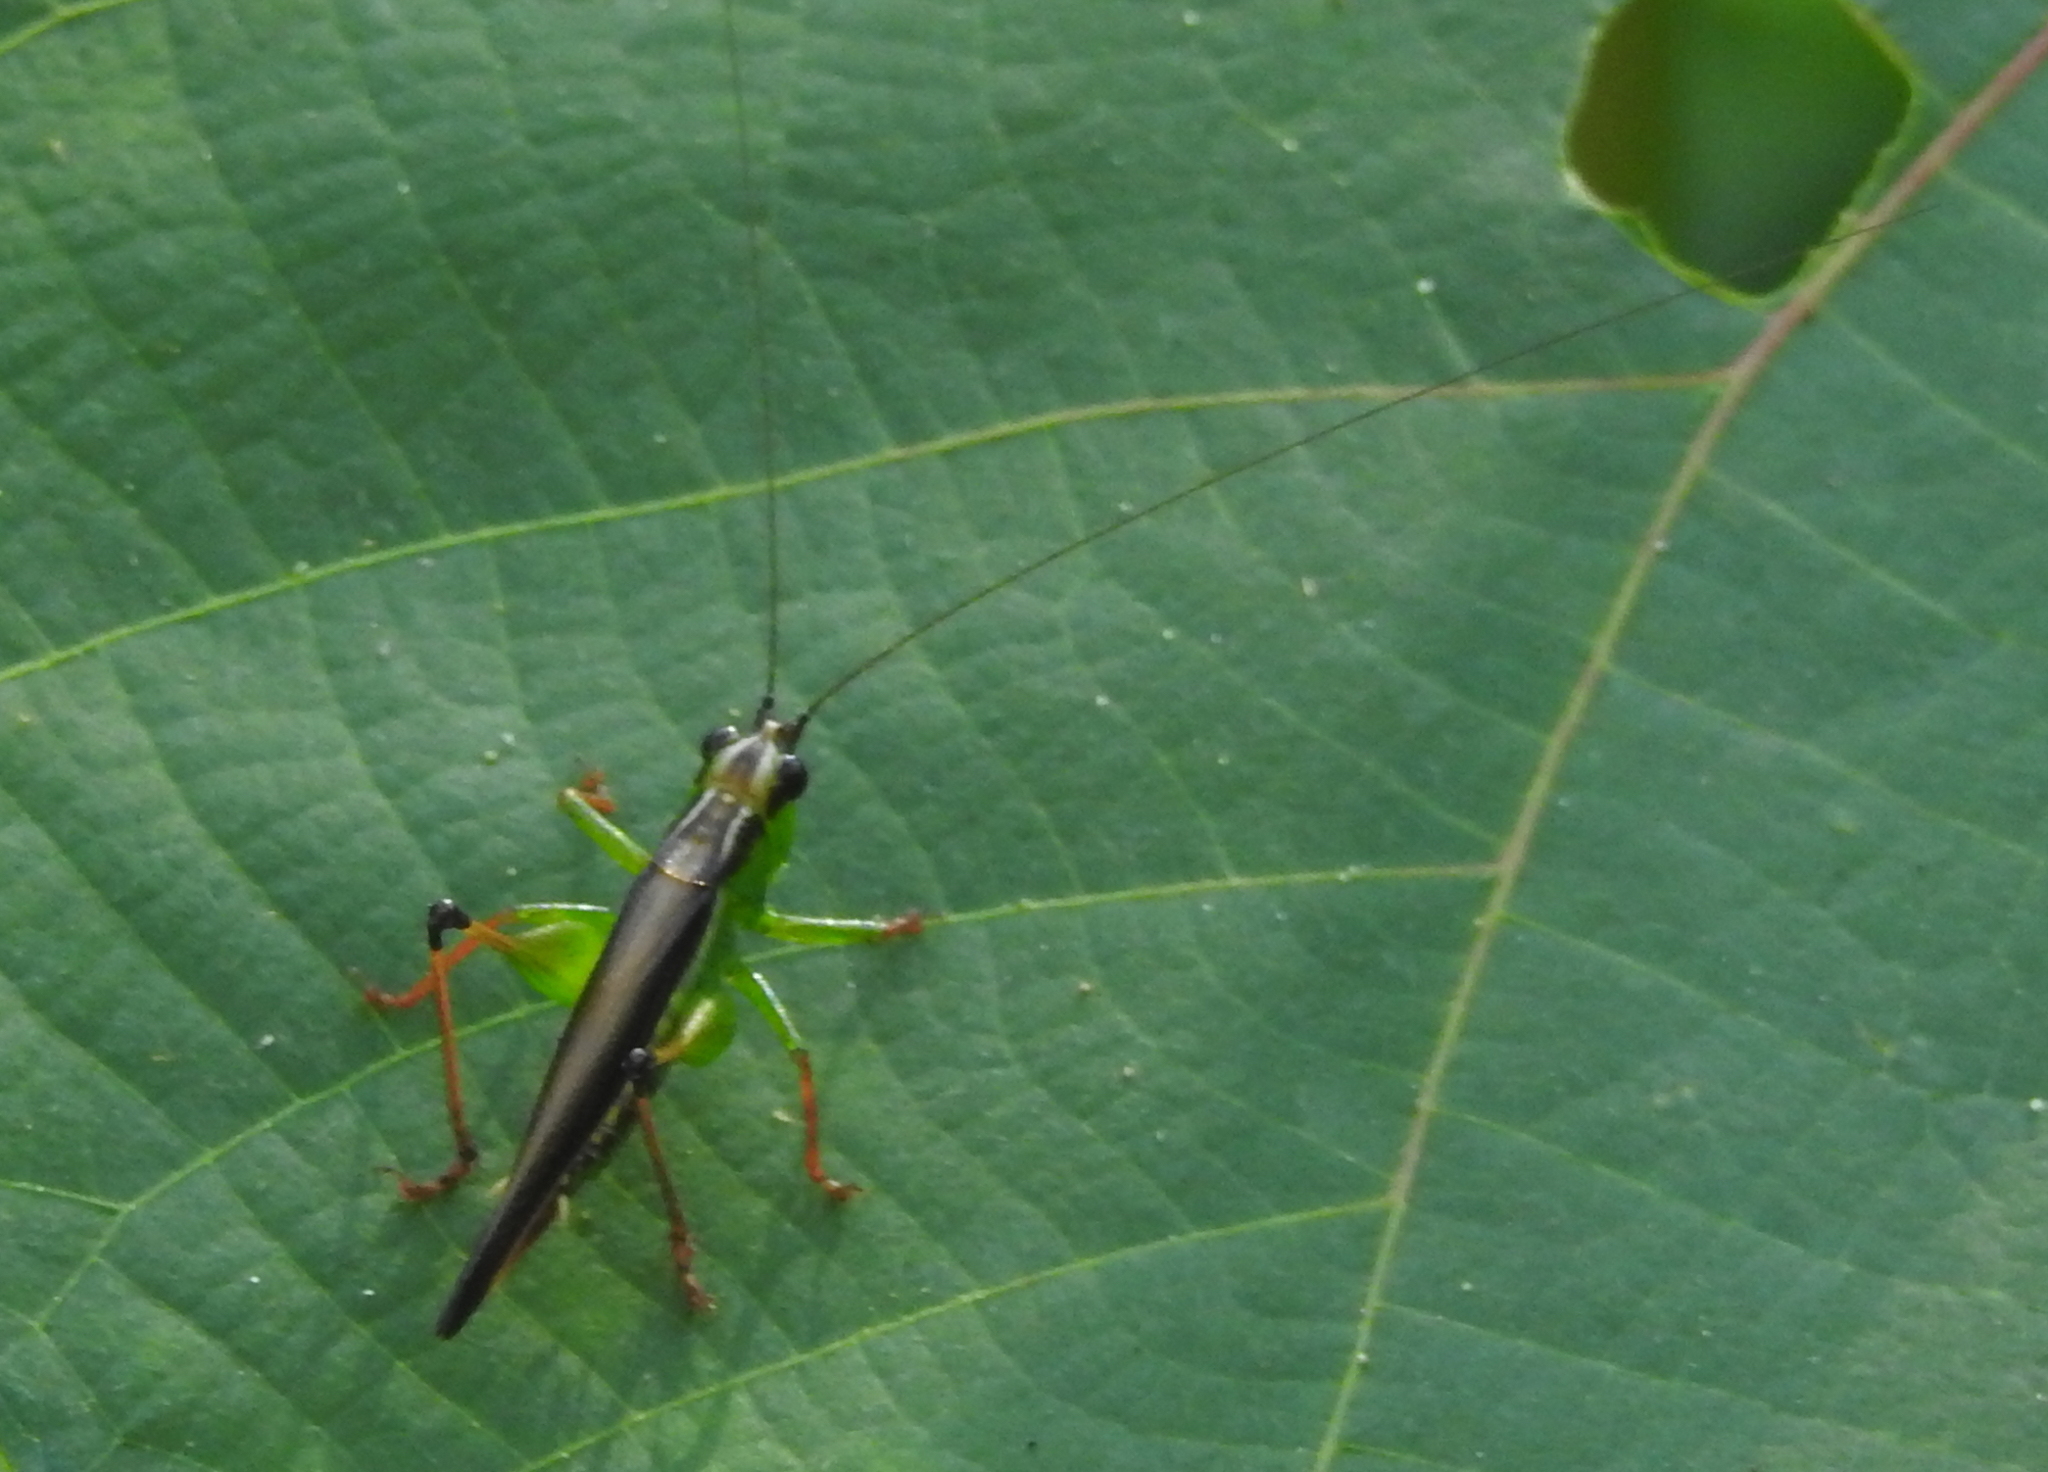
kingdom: Animalia
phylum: Arthropoda
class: Insecta
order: Orthoptera
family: Tettigoniidae
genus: Conocephalus
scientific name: Conocephalus melaenus
